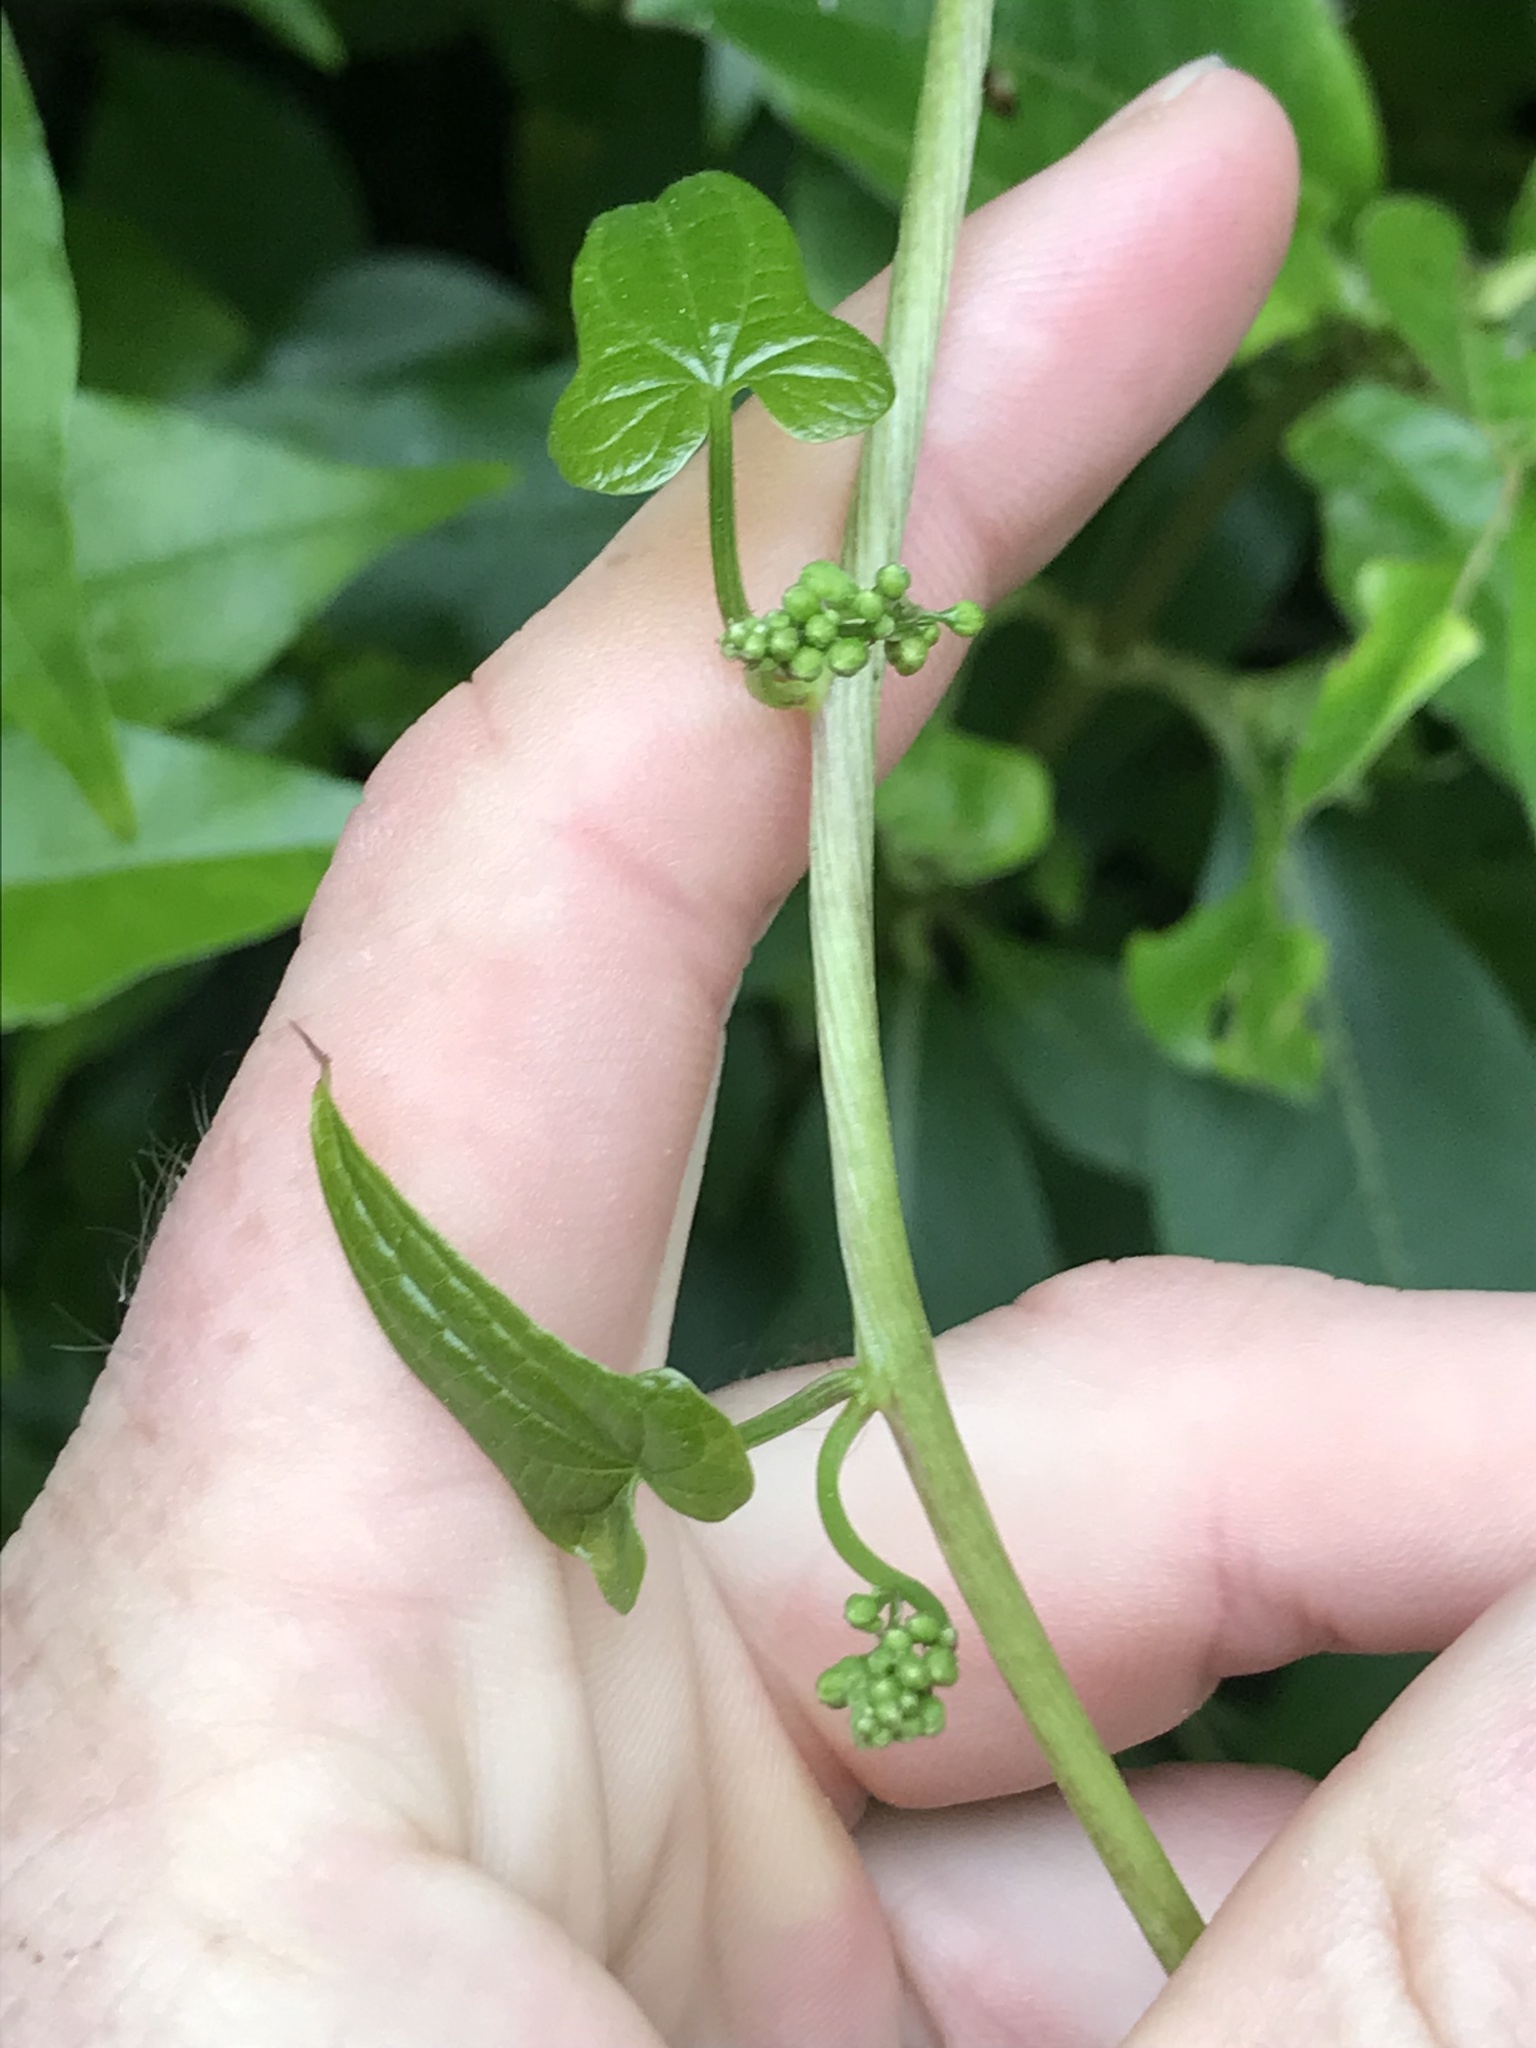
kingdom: Plantae
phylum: Tracheophyta
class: Liliopsida
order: Dioscoreales
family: Dioscoreaceae
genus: Dioscorea
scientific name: Dioscorea communis
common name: Black-bindweed
